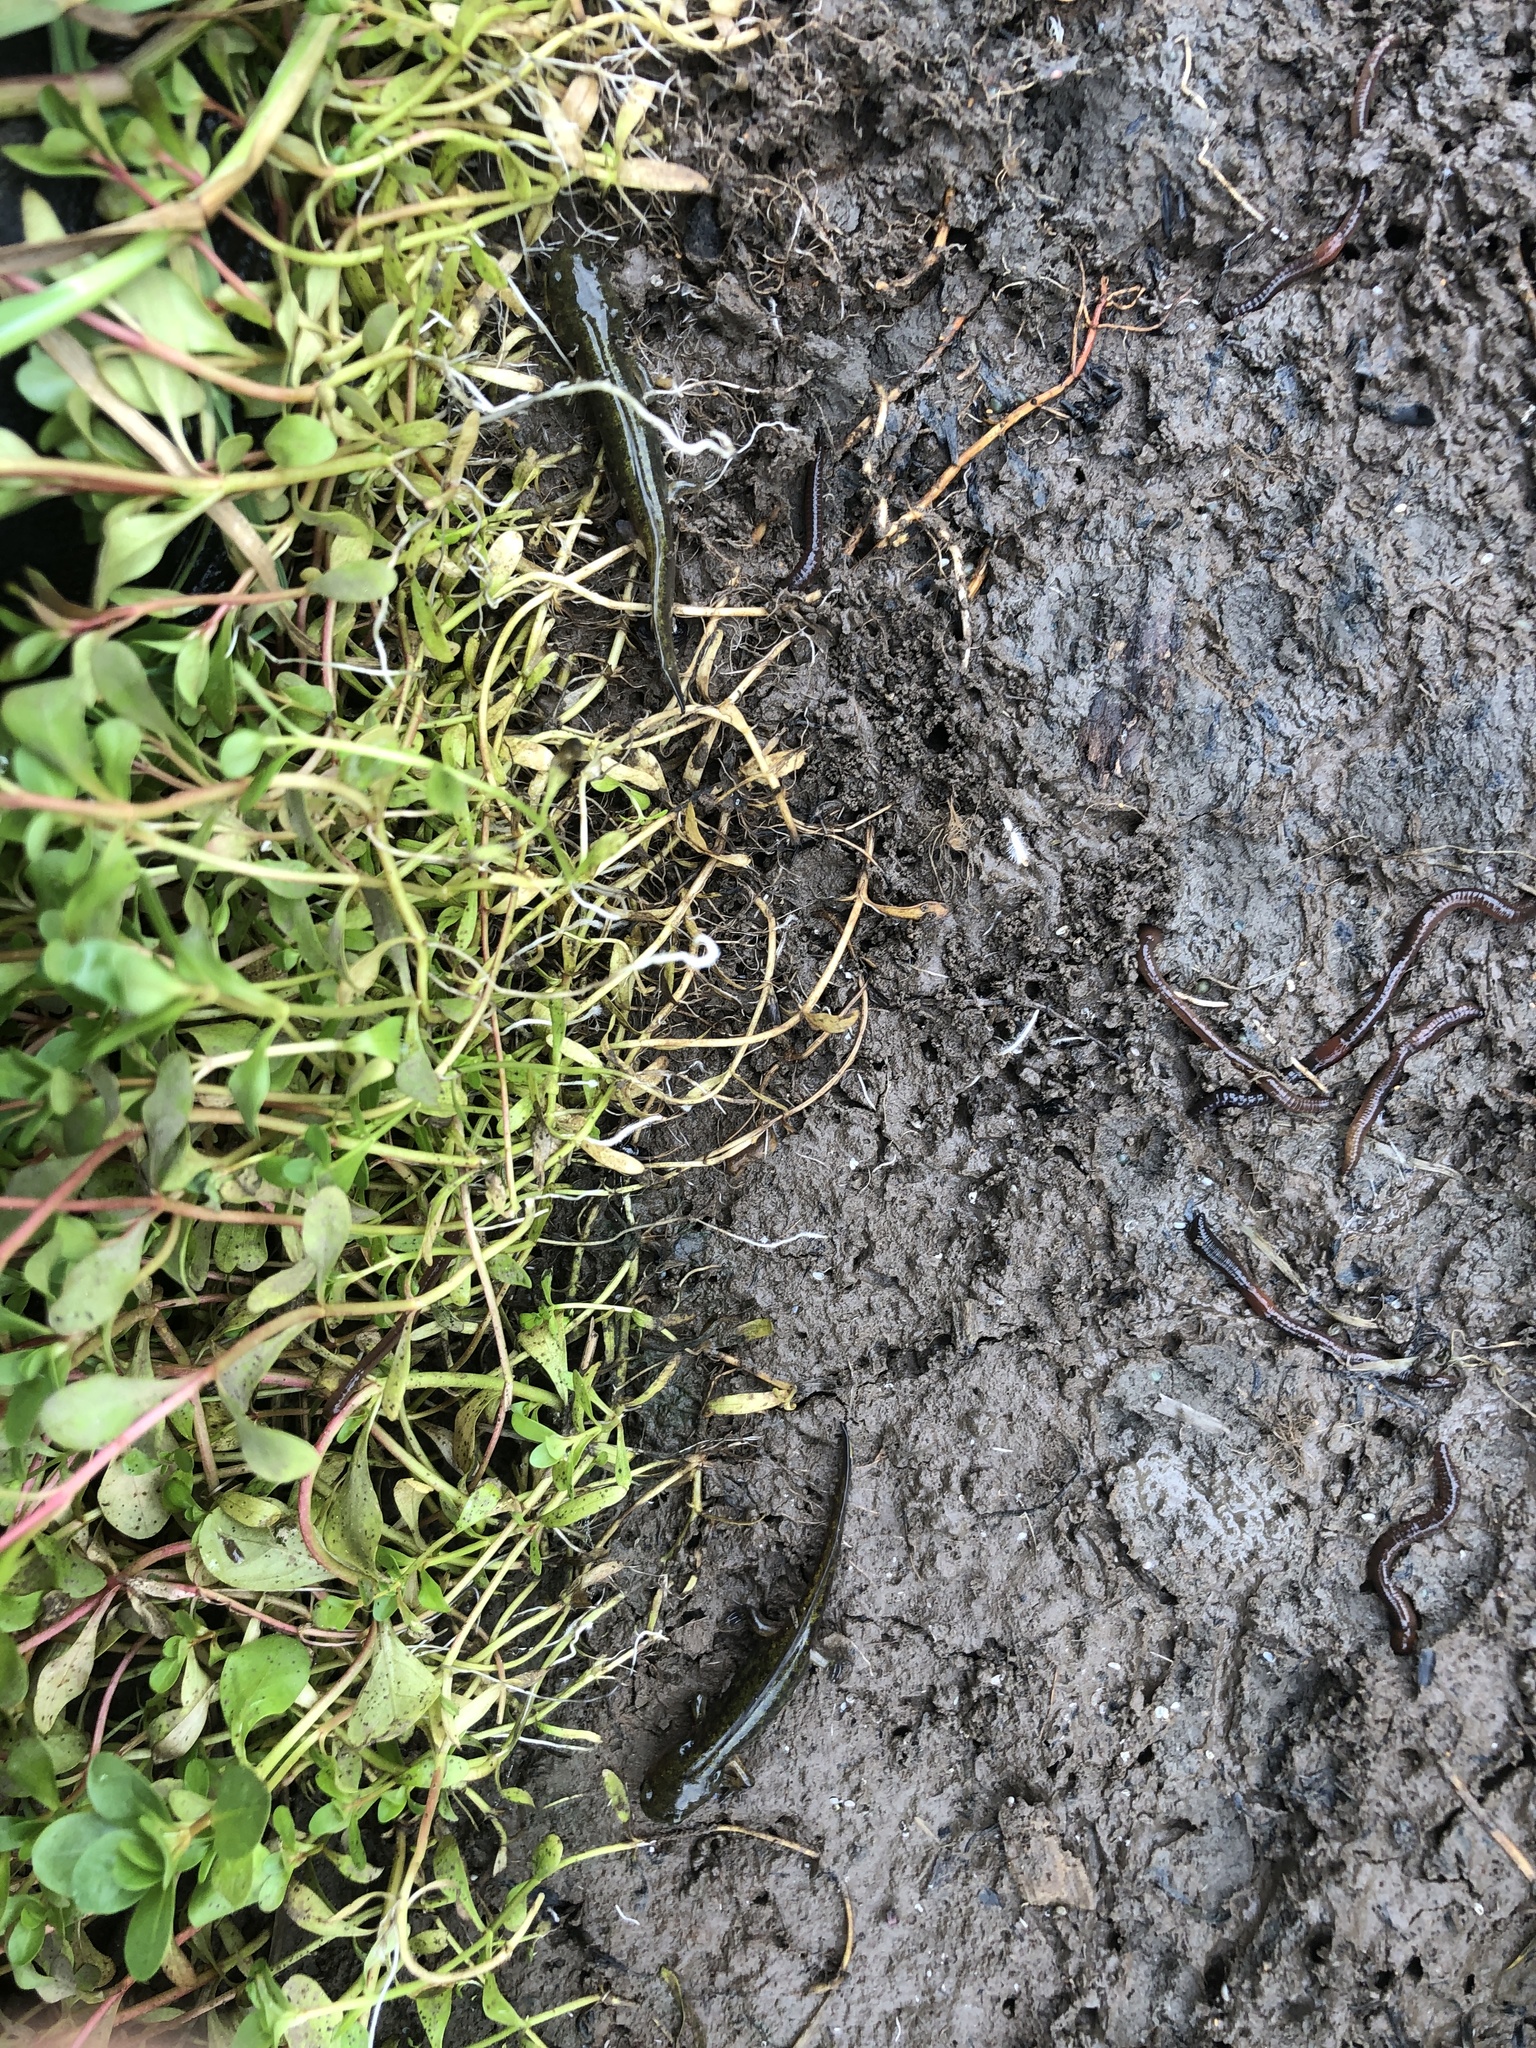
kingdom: Animalia
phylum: Chordata
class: Amphibia
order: Caudata
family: Ambystomatidae
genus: Ambystoma
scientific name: Ambystoma macrodactylum
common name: Long-toed salamander
